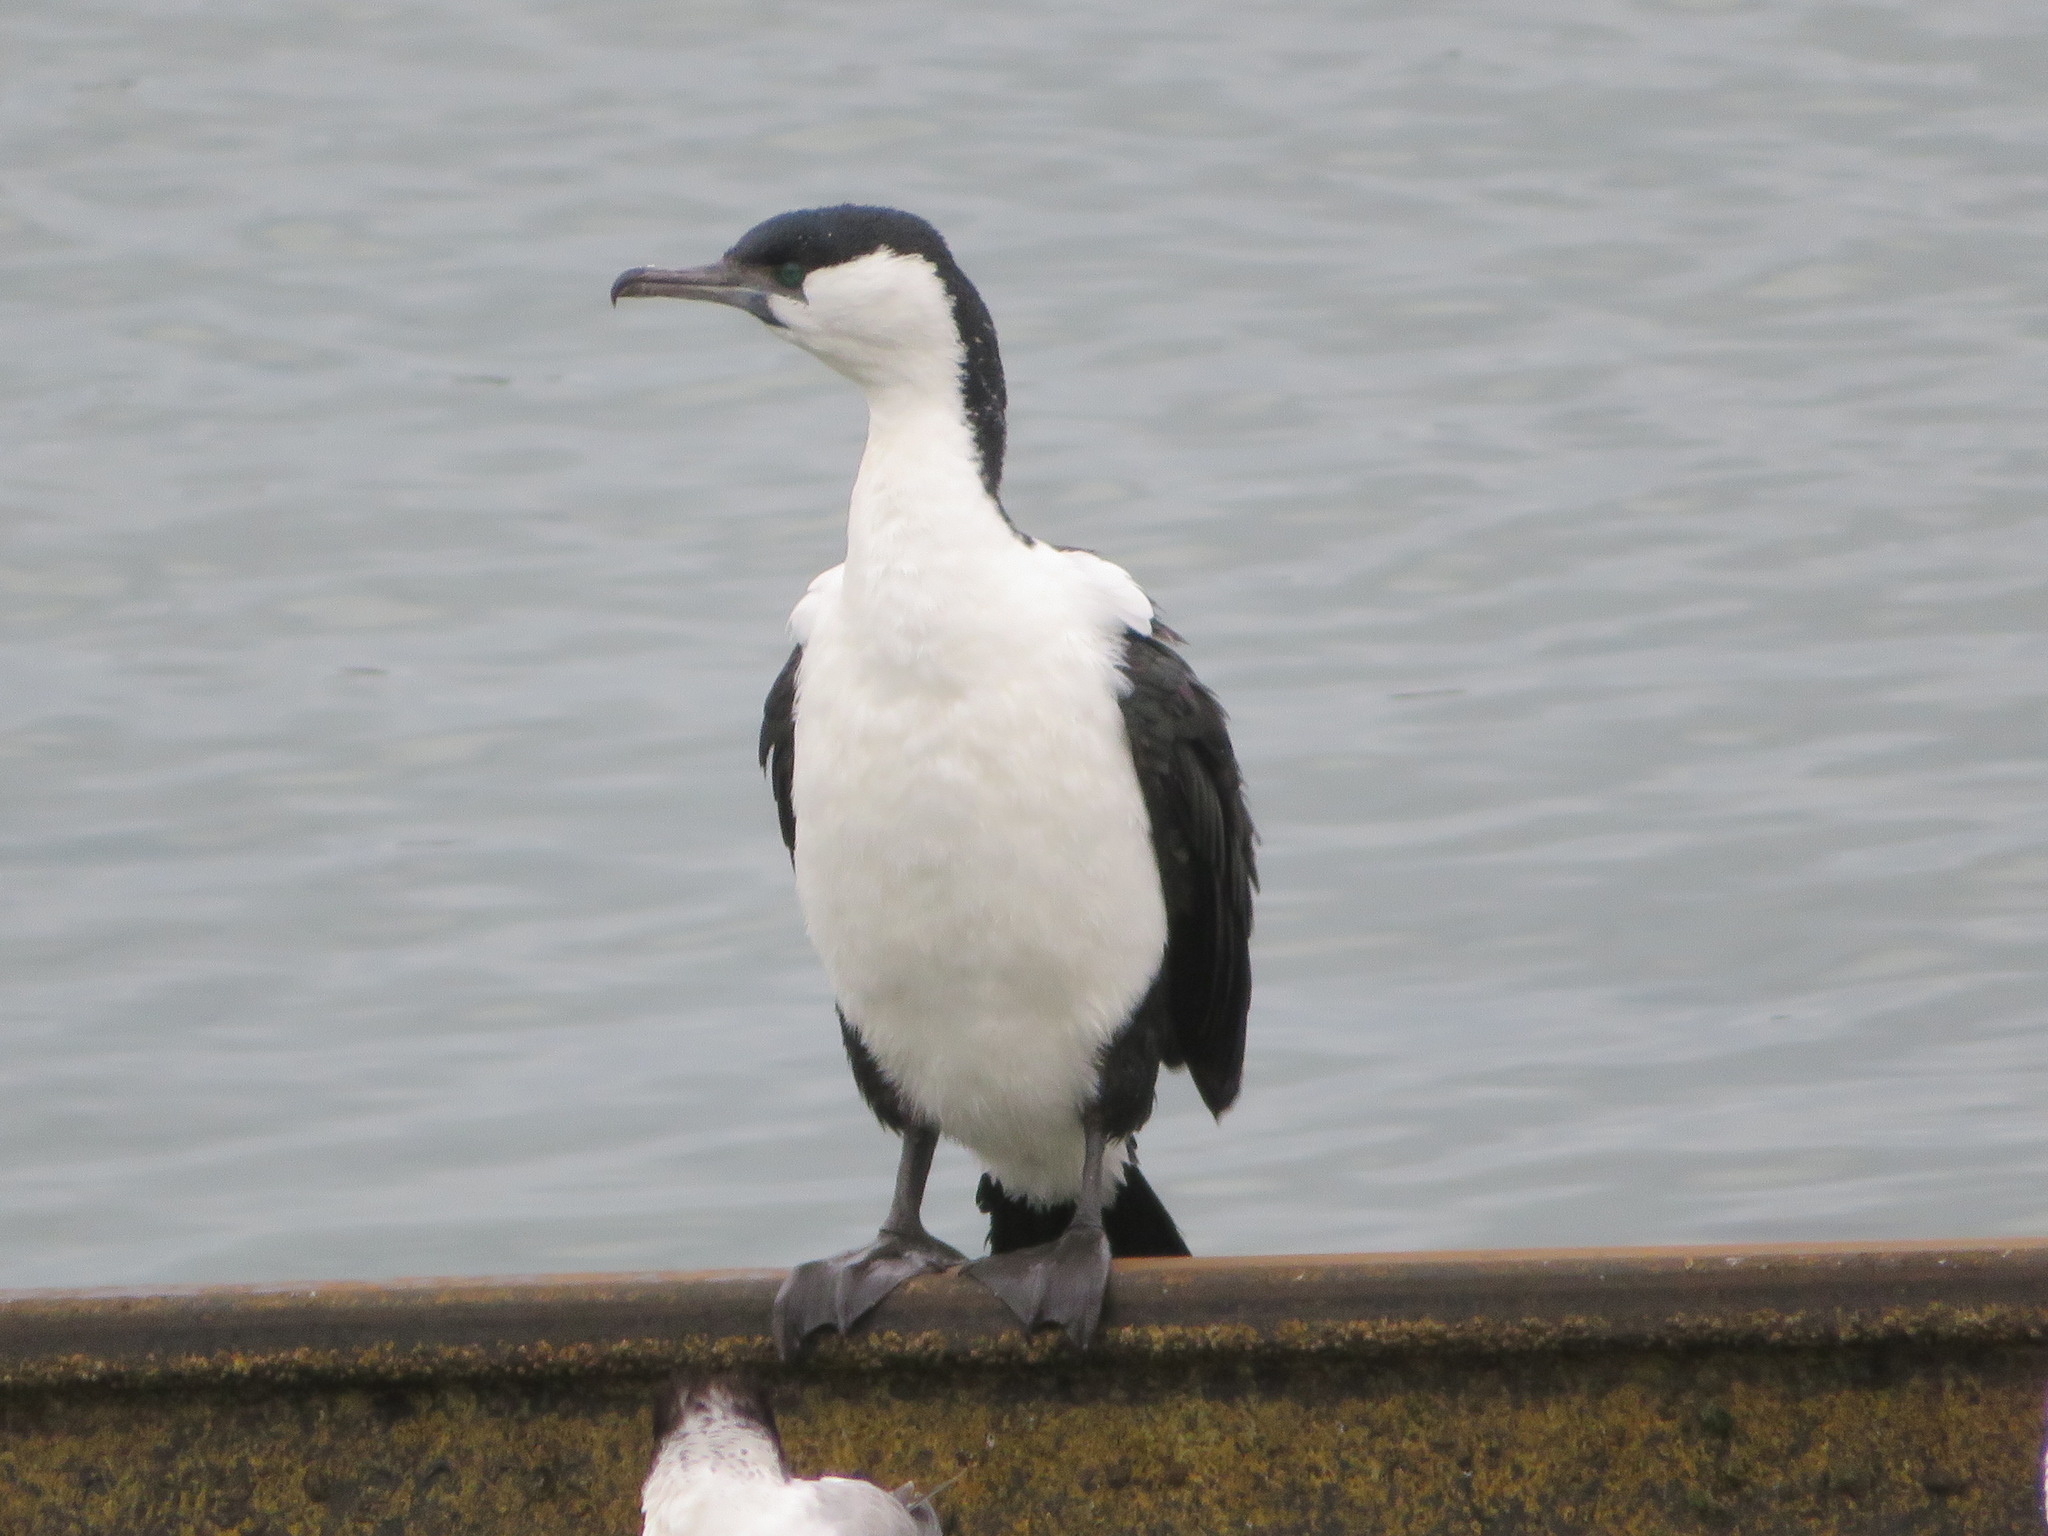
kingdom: Animalia
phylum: Chordata
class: Aves
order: Suliformes
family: Phalacrocoracidae
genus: Phalacrocorax
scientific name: Phalacrocorax fuscescens
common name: Black-faced cormorant
